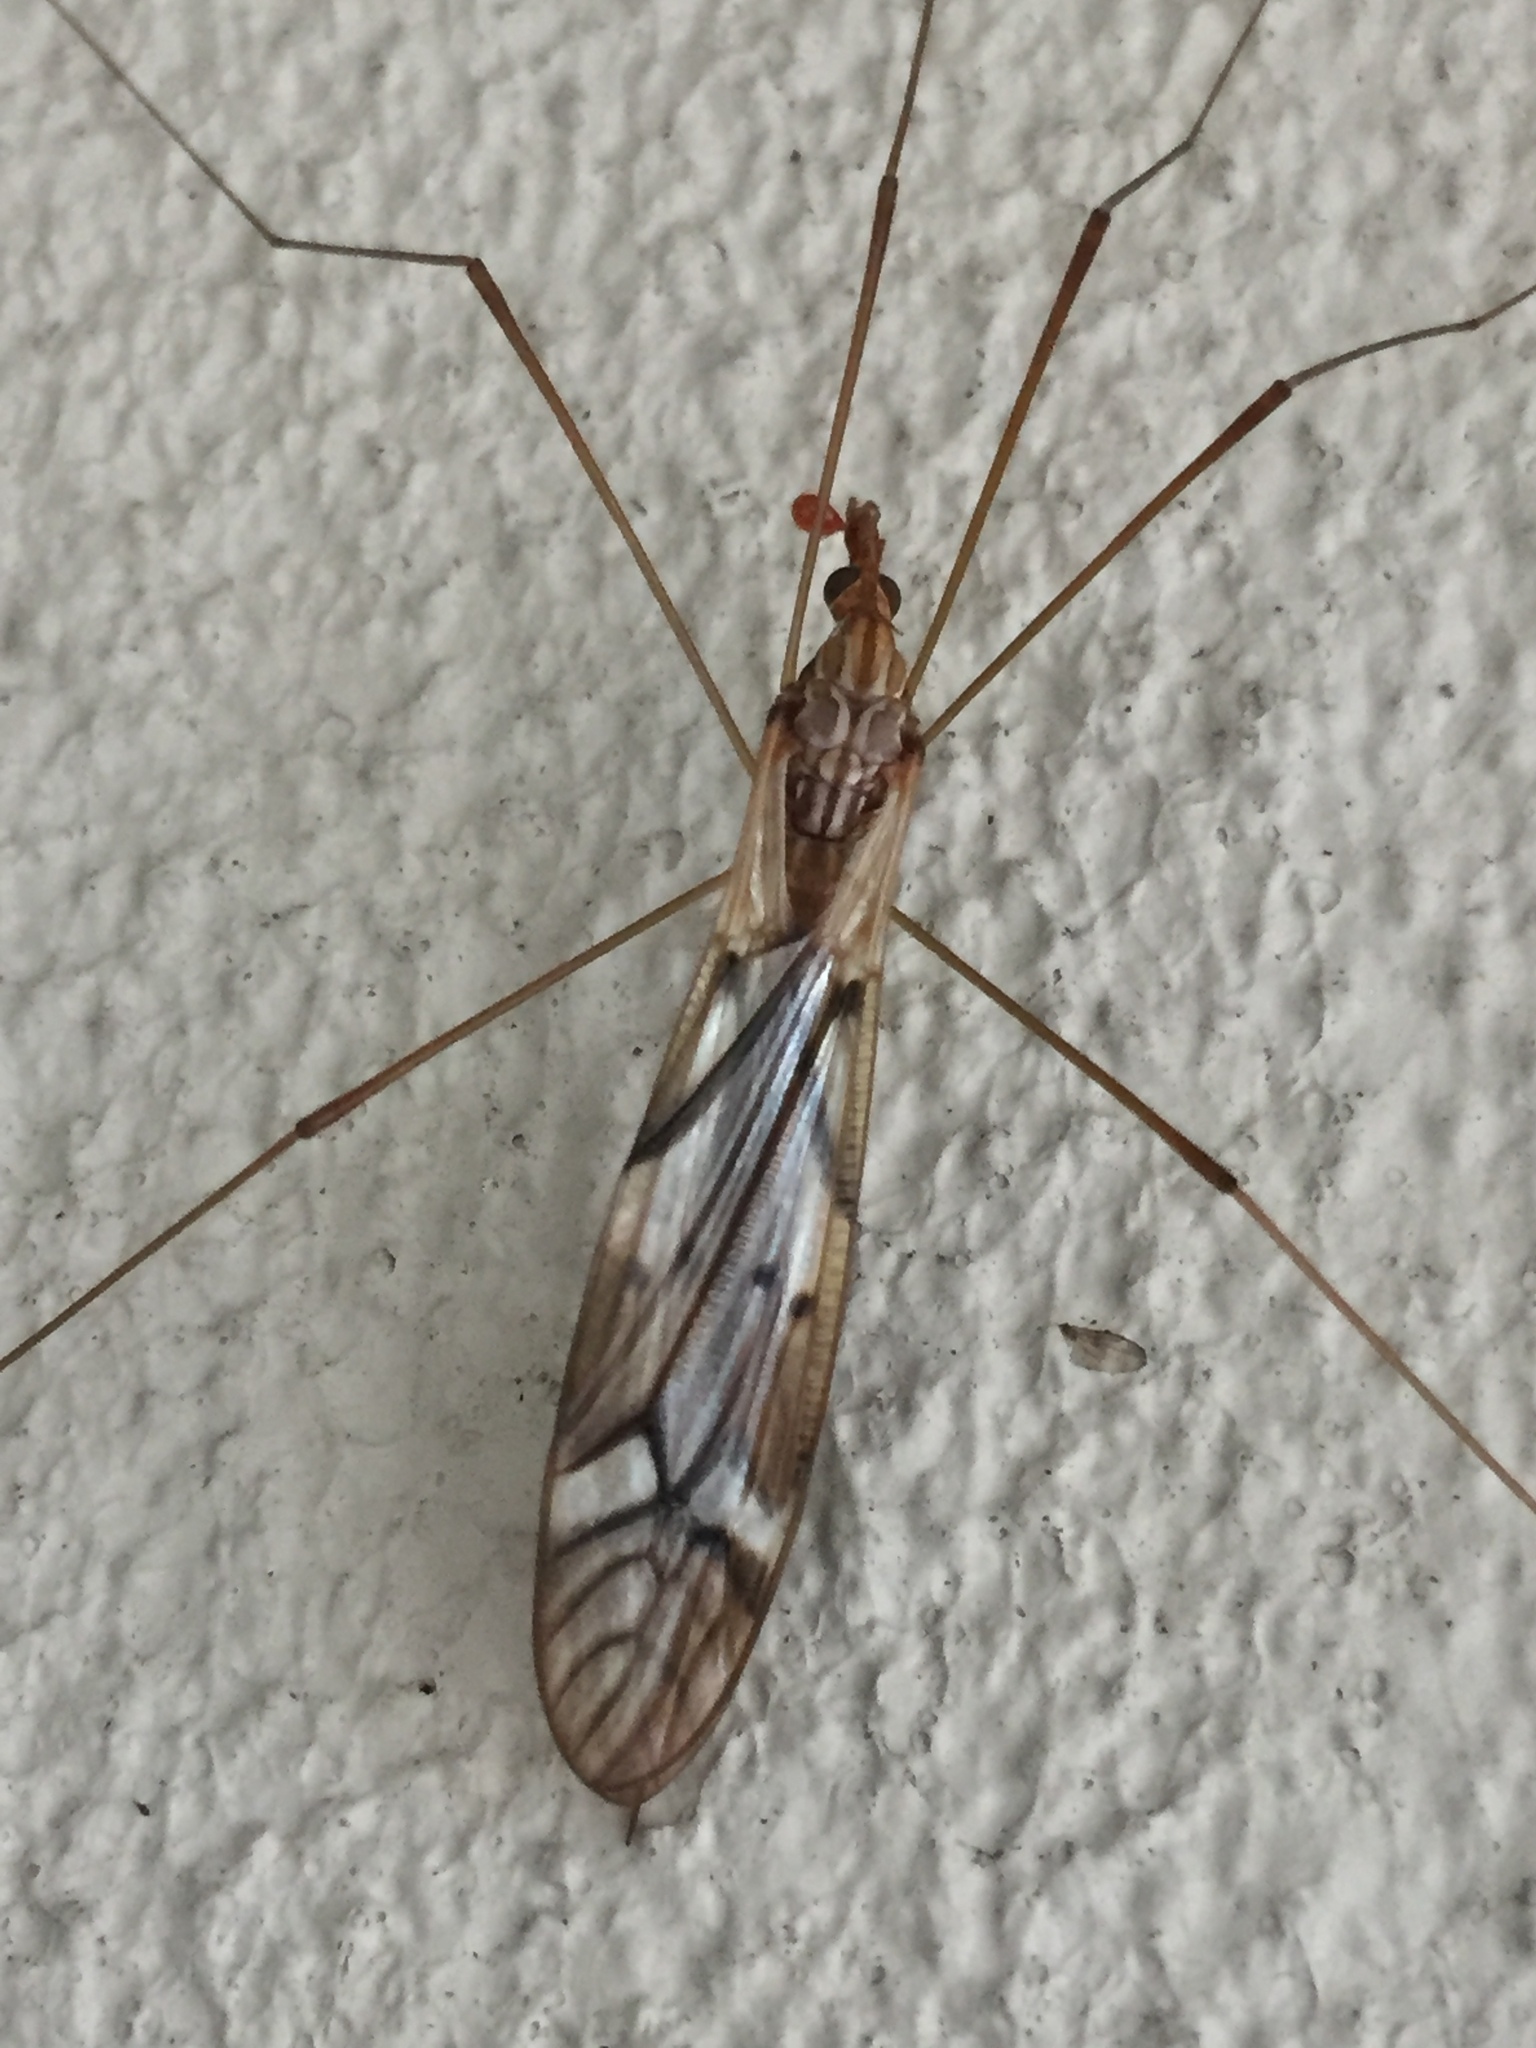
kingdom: Animalia
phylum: Arthropoda
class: Insecta
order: Diptera
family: Tipulidae
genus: Zelandotipula
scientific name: Zelandotipula novarae
